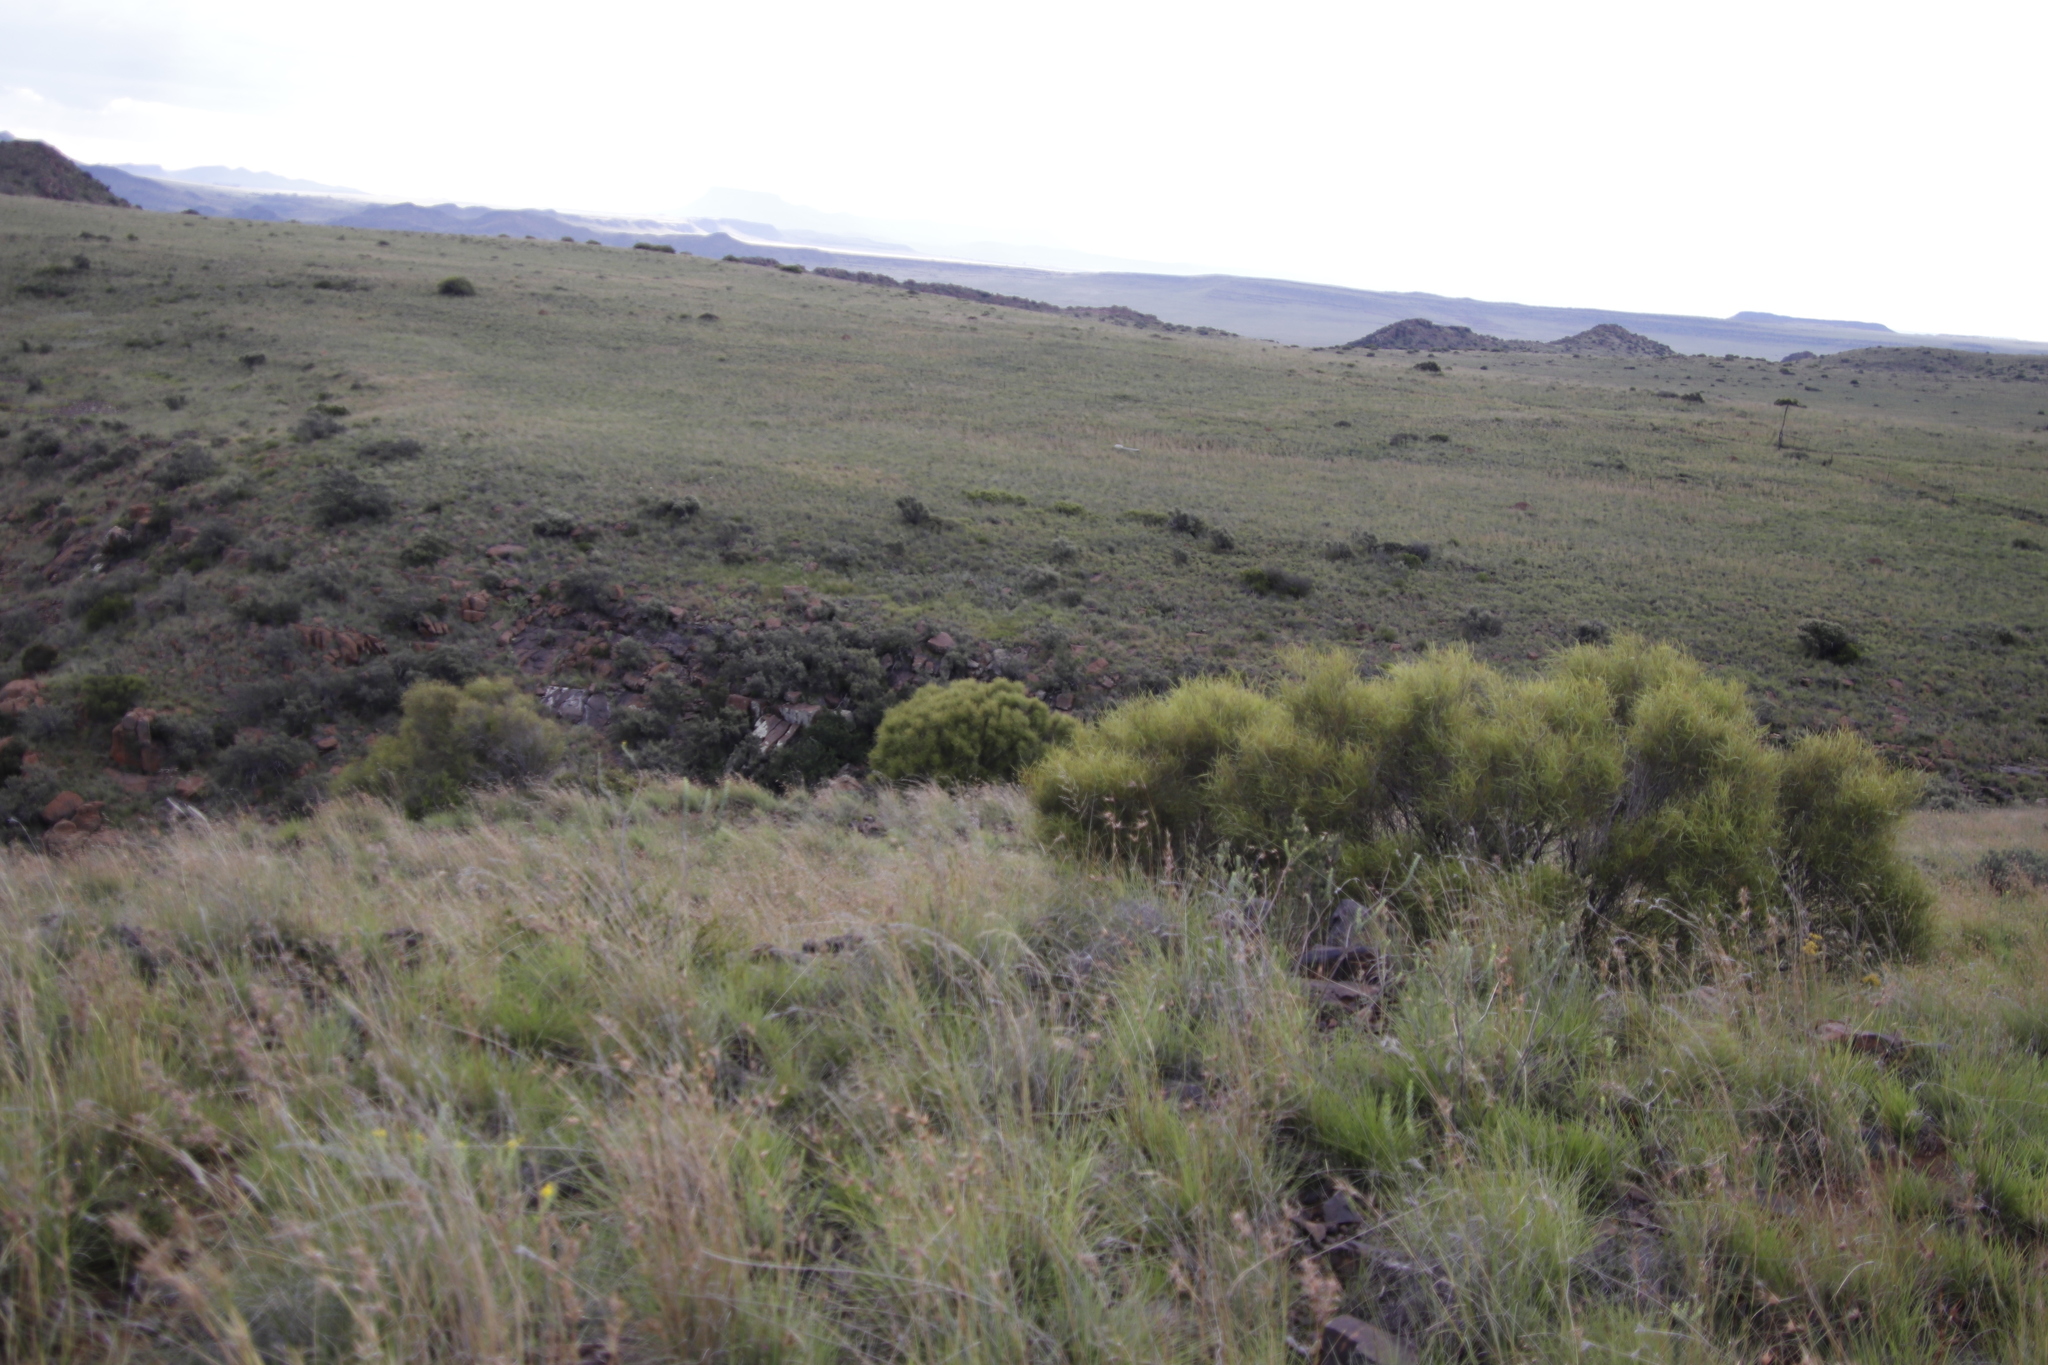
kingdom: Plantae
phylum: Tracheophyta
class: Magnoliopsida
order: Sapindales
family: Anacardiaceae
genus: Searsia
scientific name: Searsia erosa
